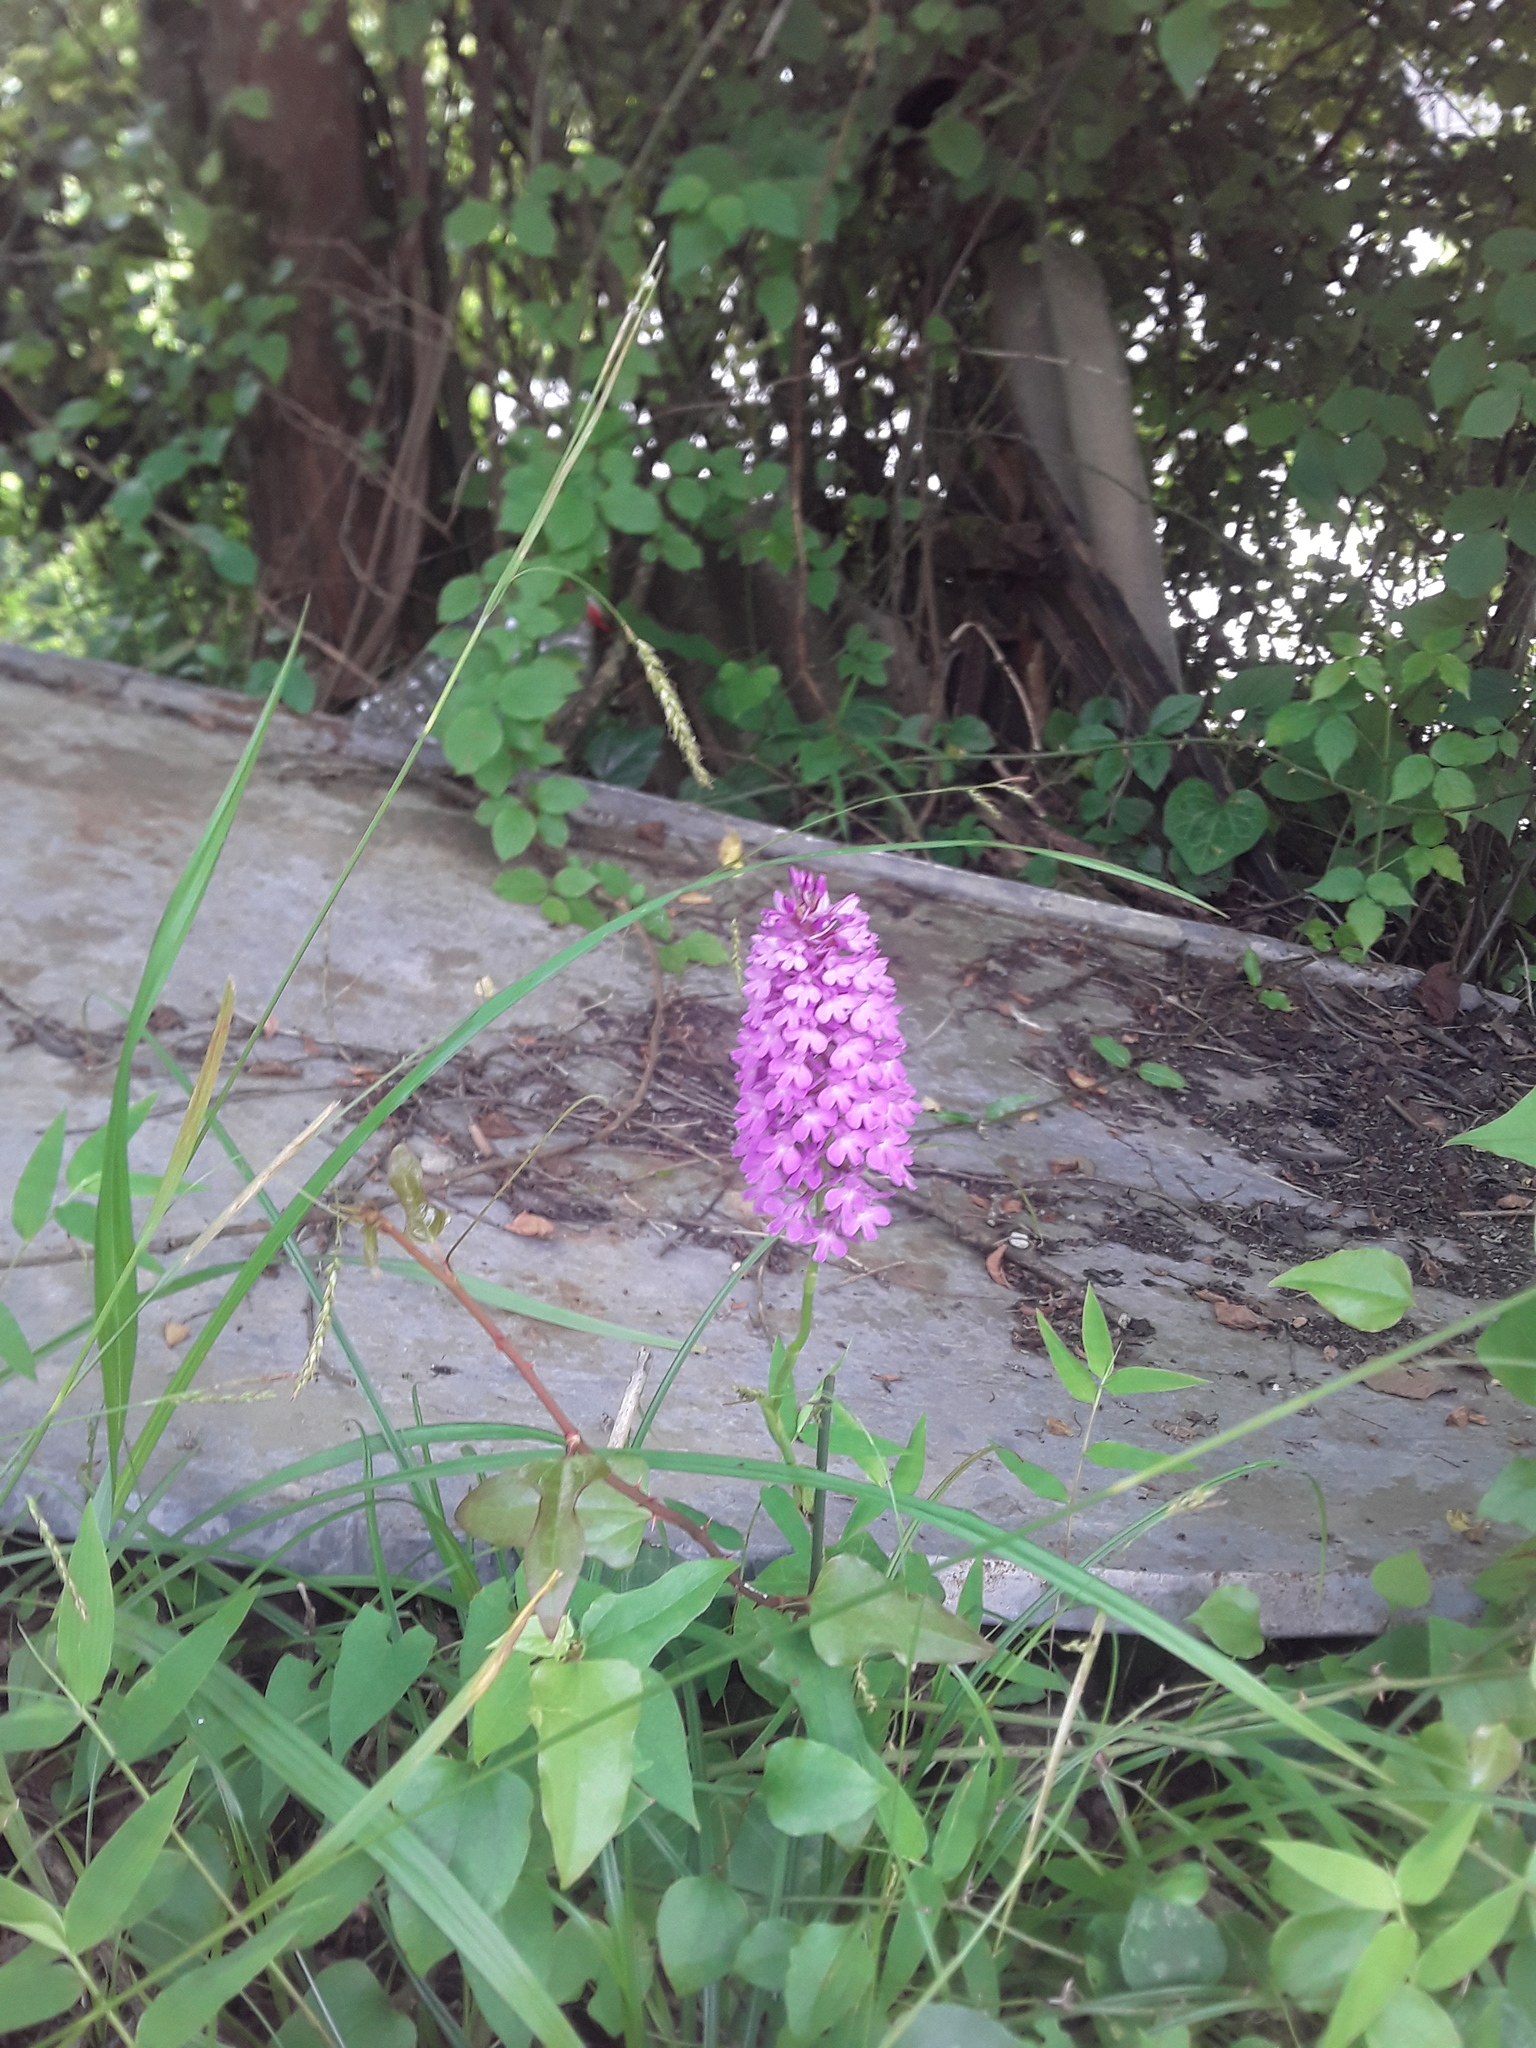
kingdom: Plantae
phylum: Tracheophyta
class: Liliopsida
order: Asparagales
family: Orchidaceae
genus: Anacamptis
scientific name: Anacamptis pyramidalis
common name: Pyramidal orchid
